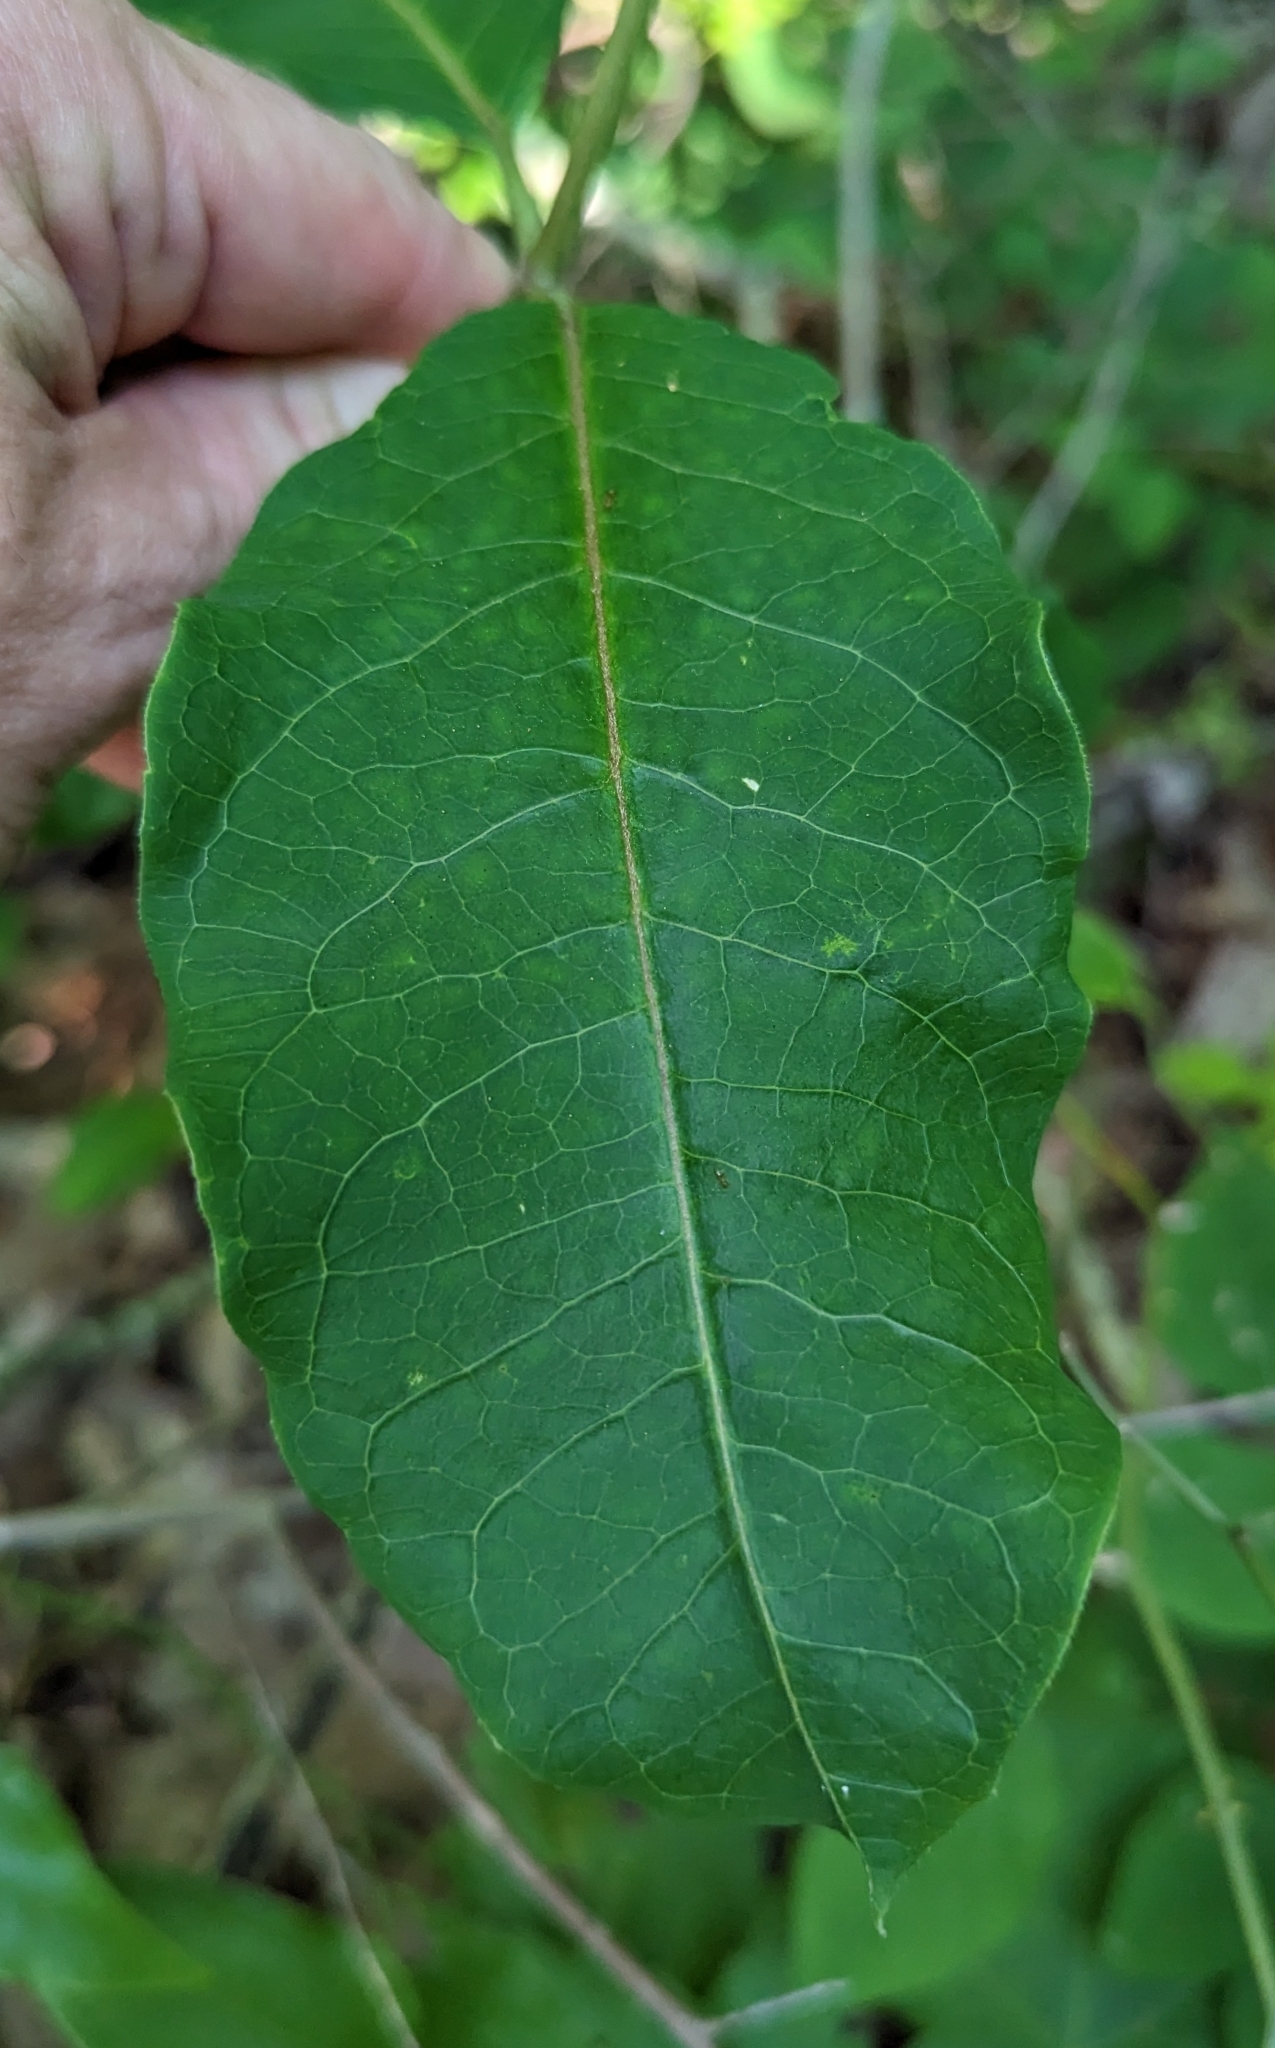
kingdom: Plantae
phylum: Tracheophyta
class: Magnoliopsida
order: Gentianales
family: Apocynaceae
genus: Asclepias
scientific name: Asclepias variegata
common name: Variegated milkweed
